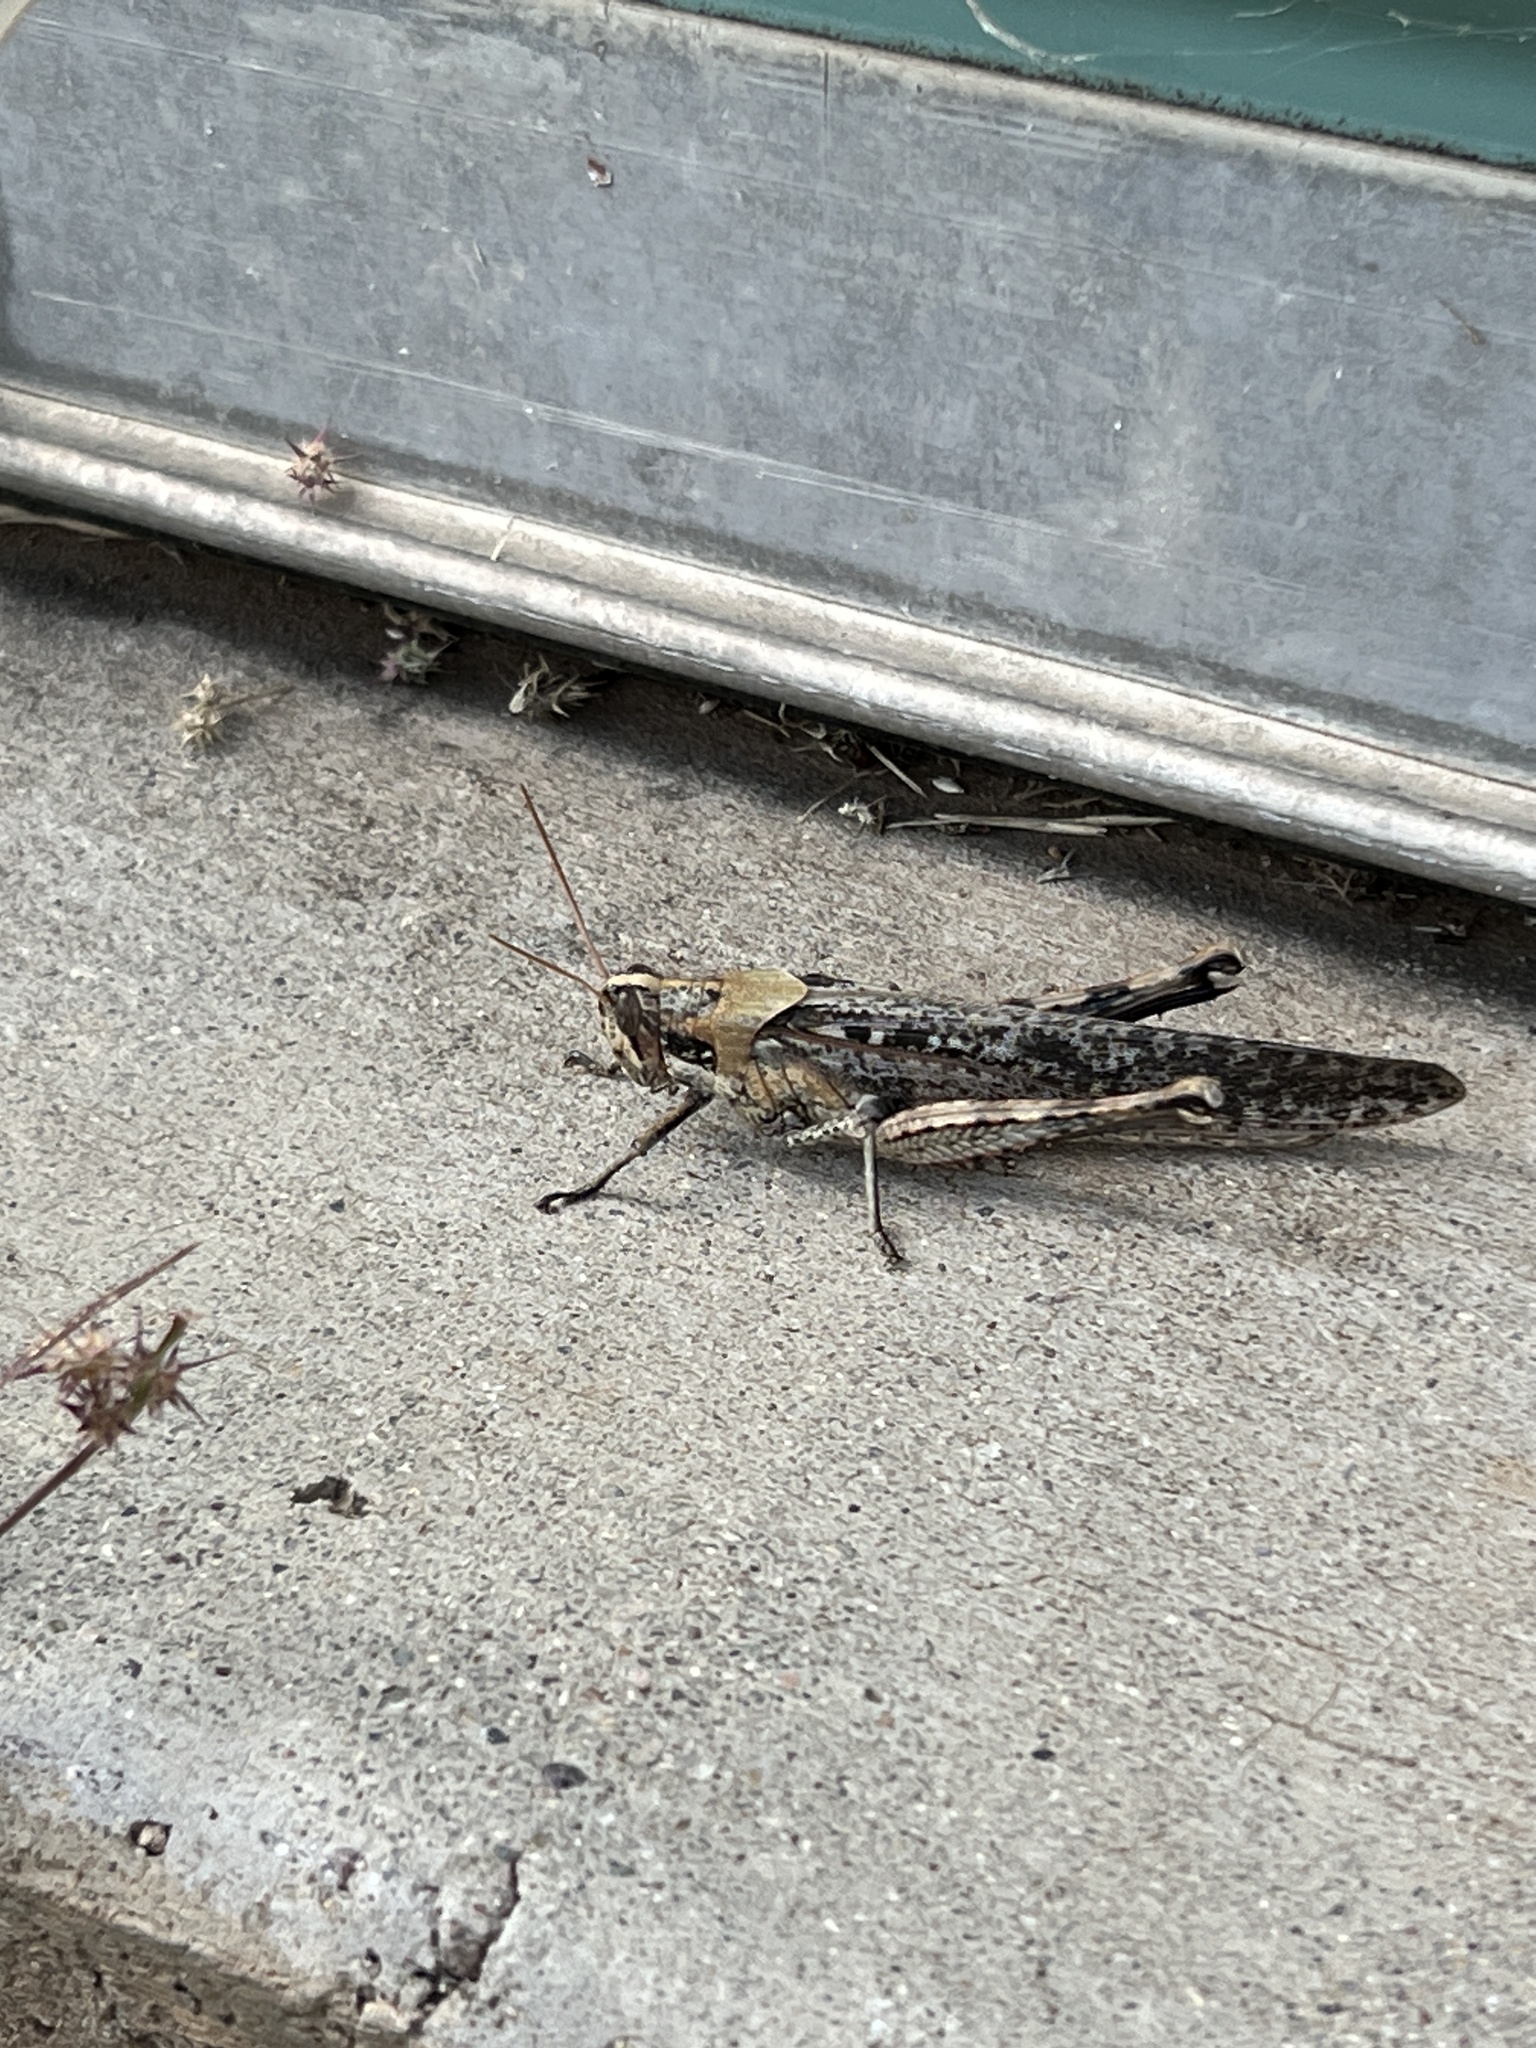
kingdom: Animalia
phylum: Arthropoda
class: Insecta
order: Orthoptera
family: Acrididae
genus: Schistocerca
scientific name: Schistocerca nitens
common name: Vagrant grasshopper
